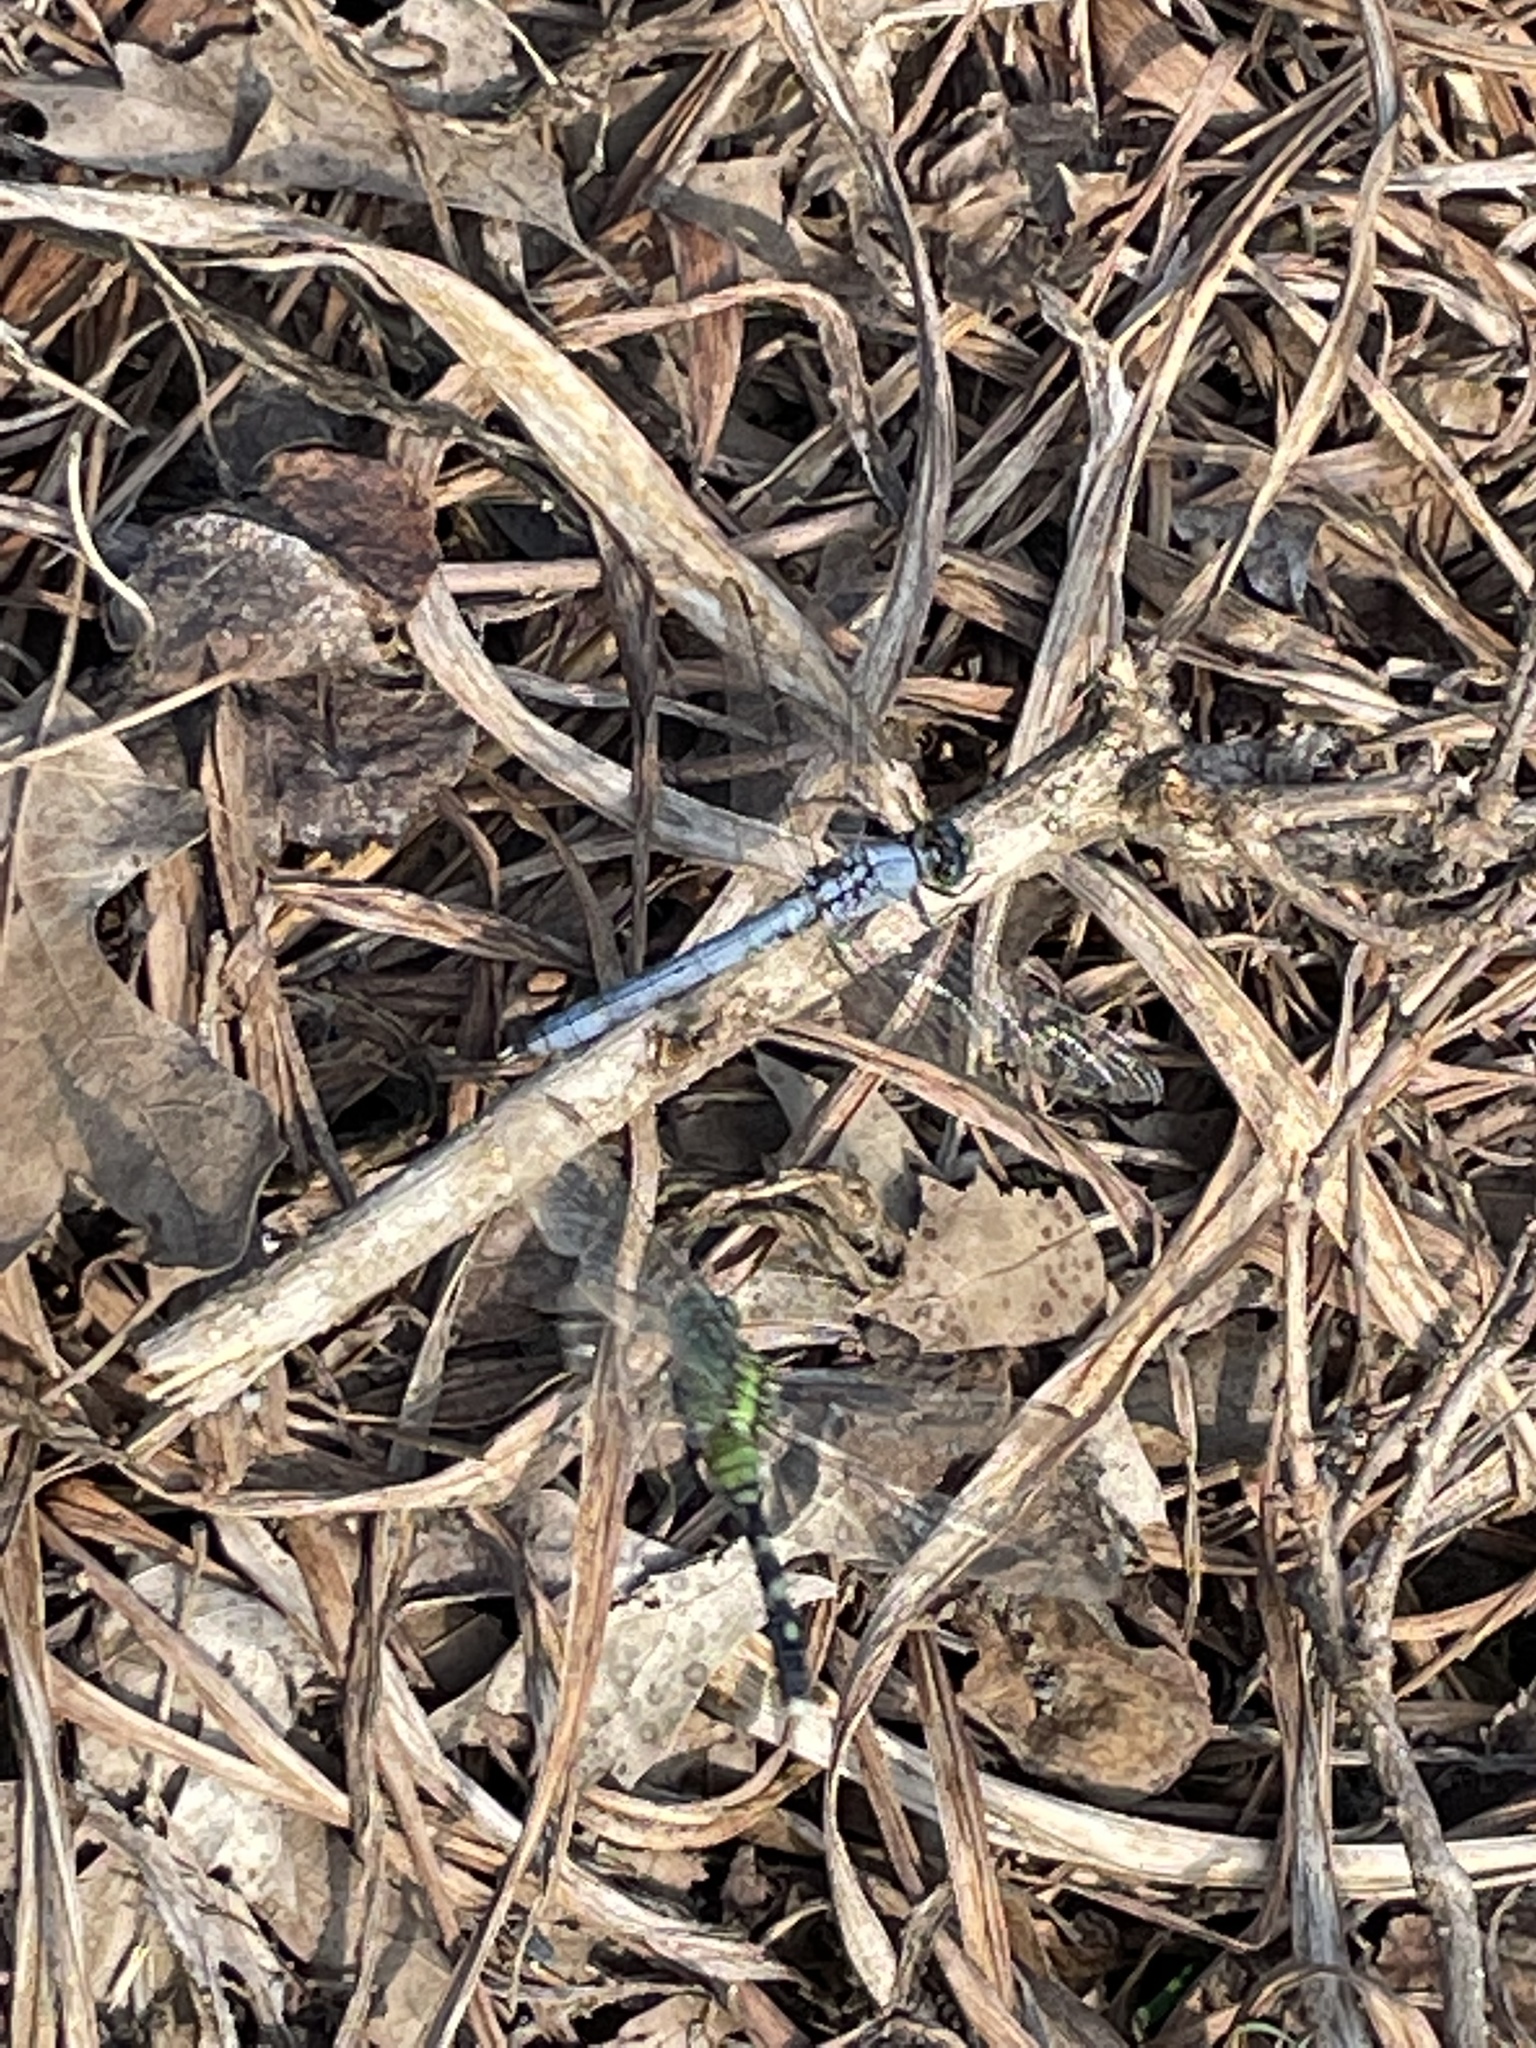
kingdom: Animalia
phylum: Arthropoda
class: Insecta
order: Odonata
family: Libellulidae
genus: Erythemis
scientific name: Erythemis simplicicollis
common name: Eastern pondhawk
